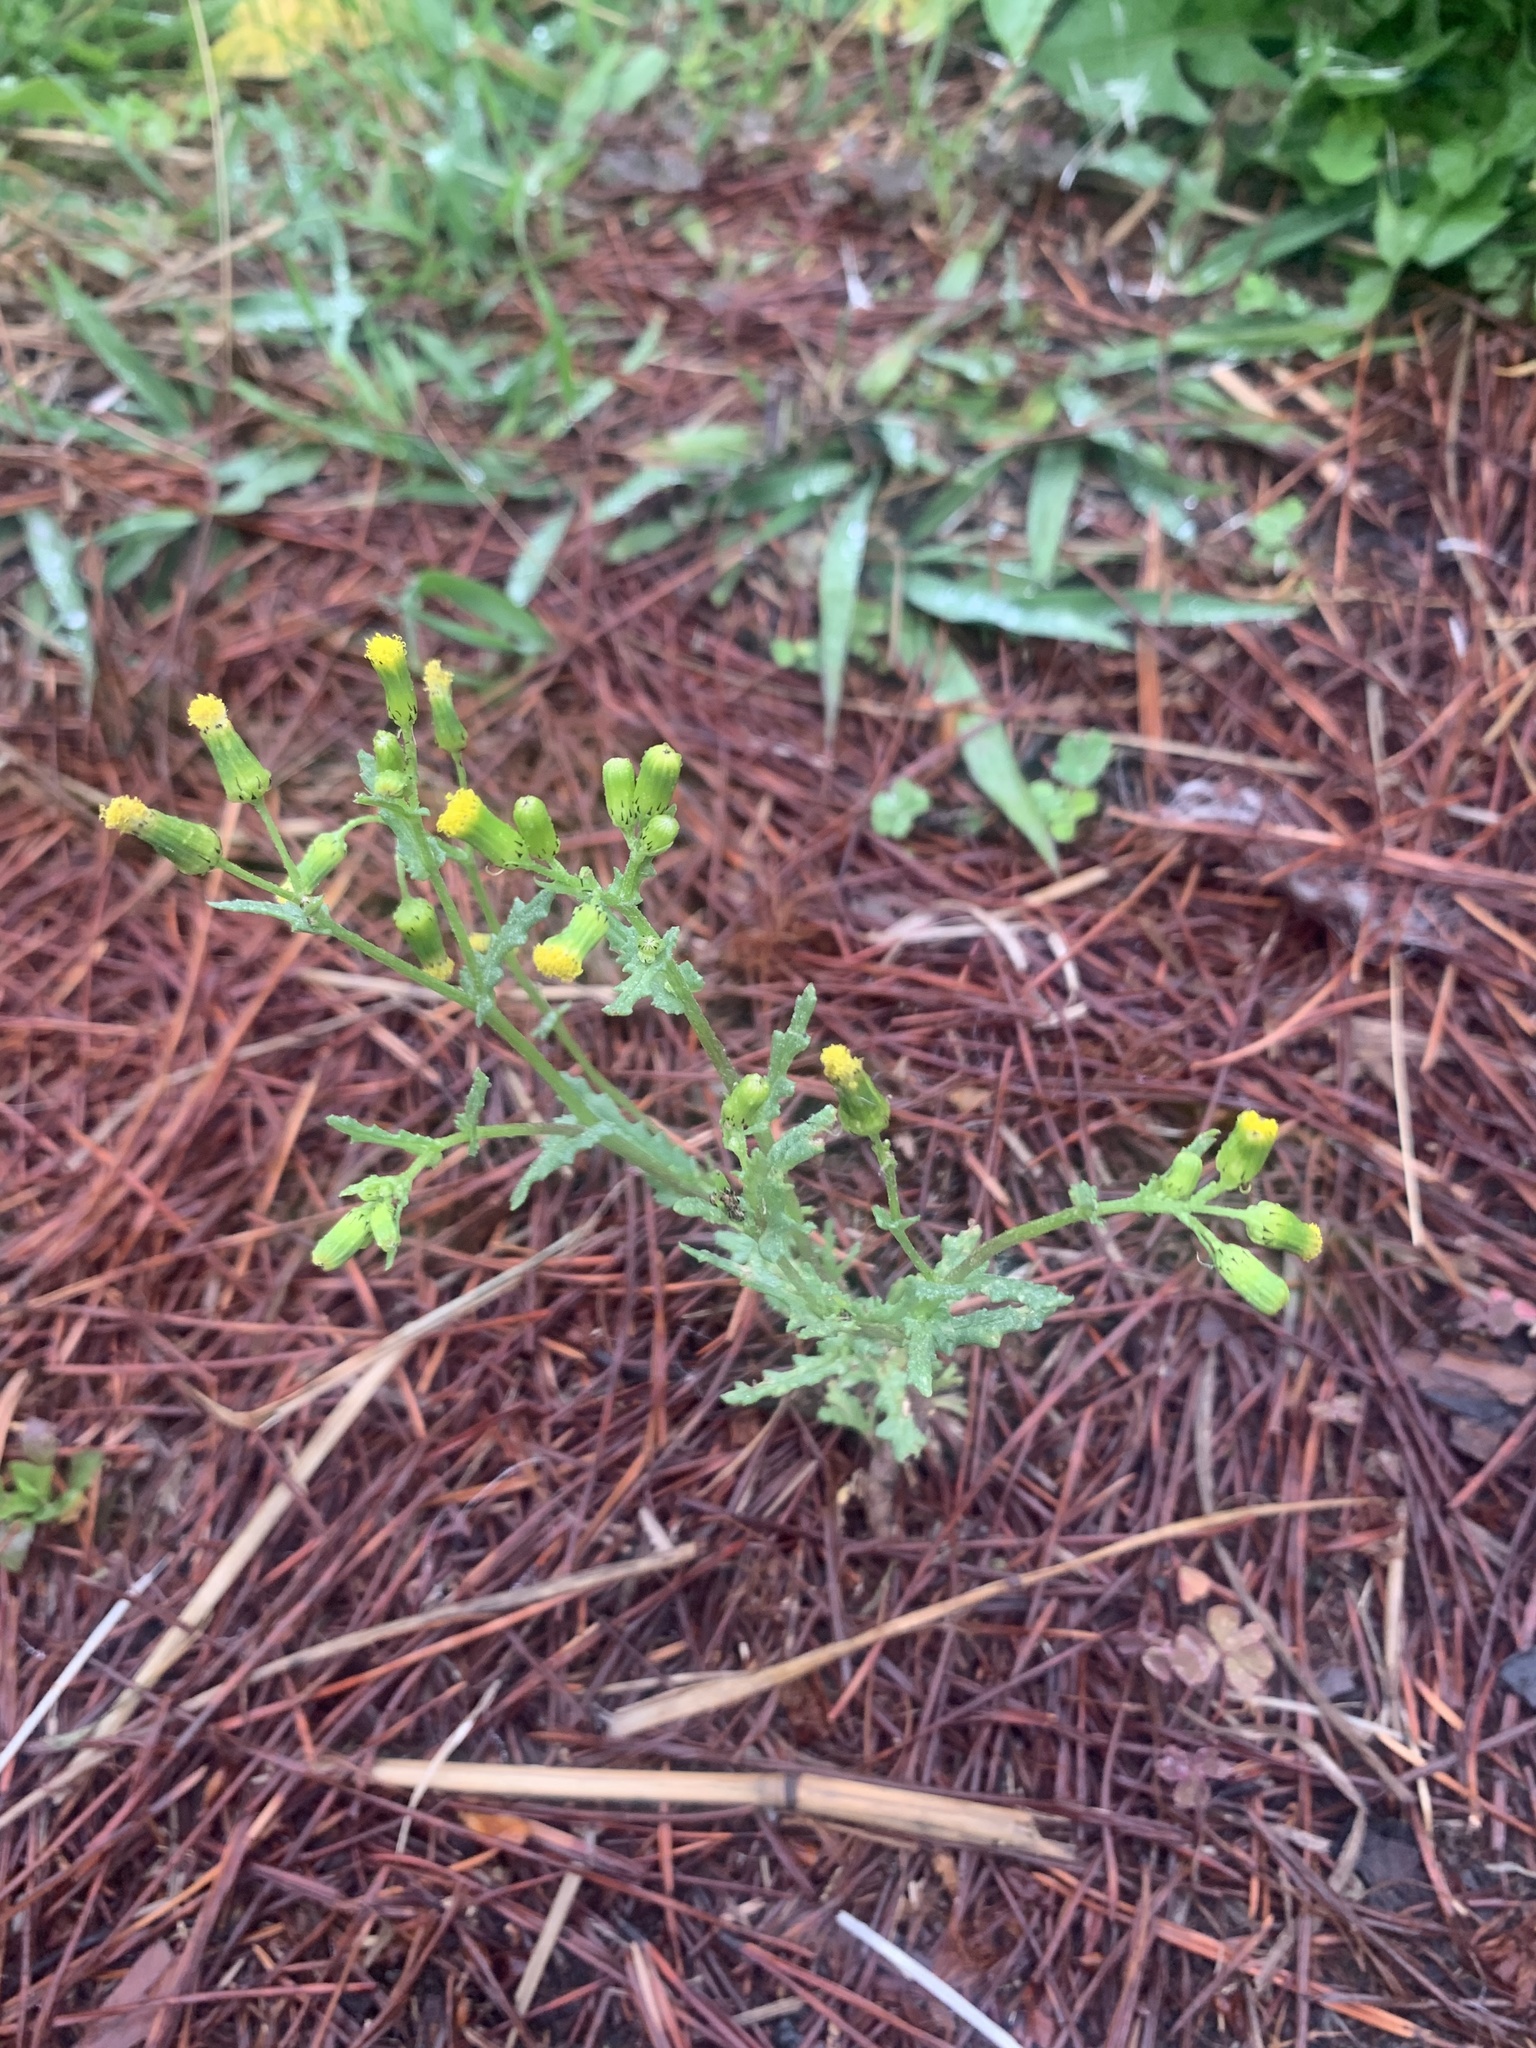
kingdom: Plantae
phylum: Tracheophyta
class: Magnoliopsida
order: Asterales
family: Asteraceae
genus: Senecio
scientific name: Senecio vulgaris
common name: Old-man-in-the-spring
